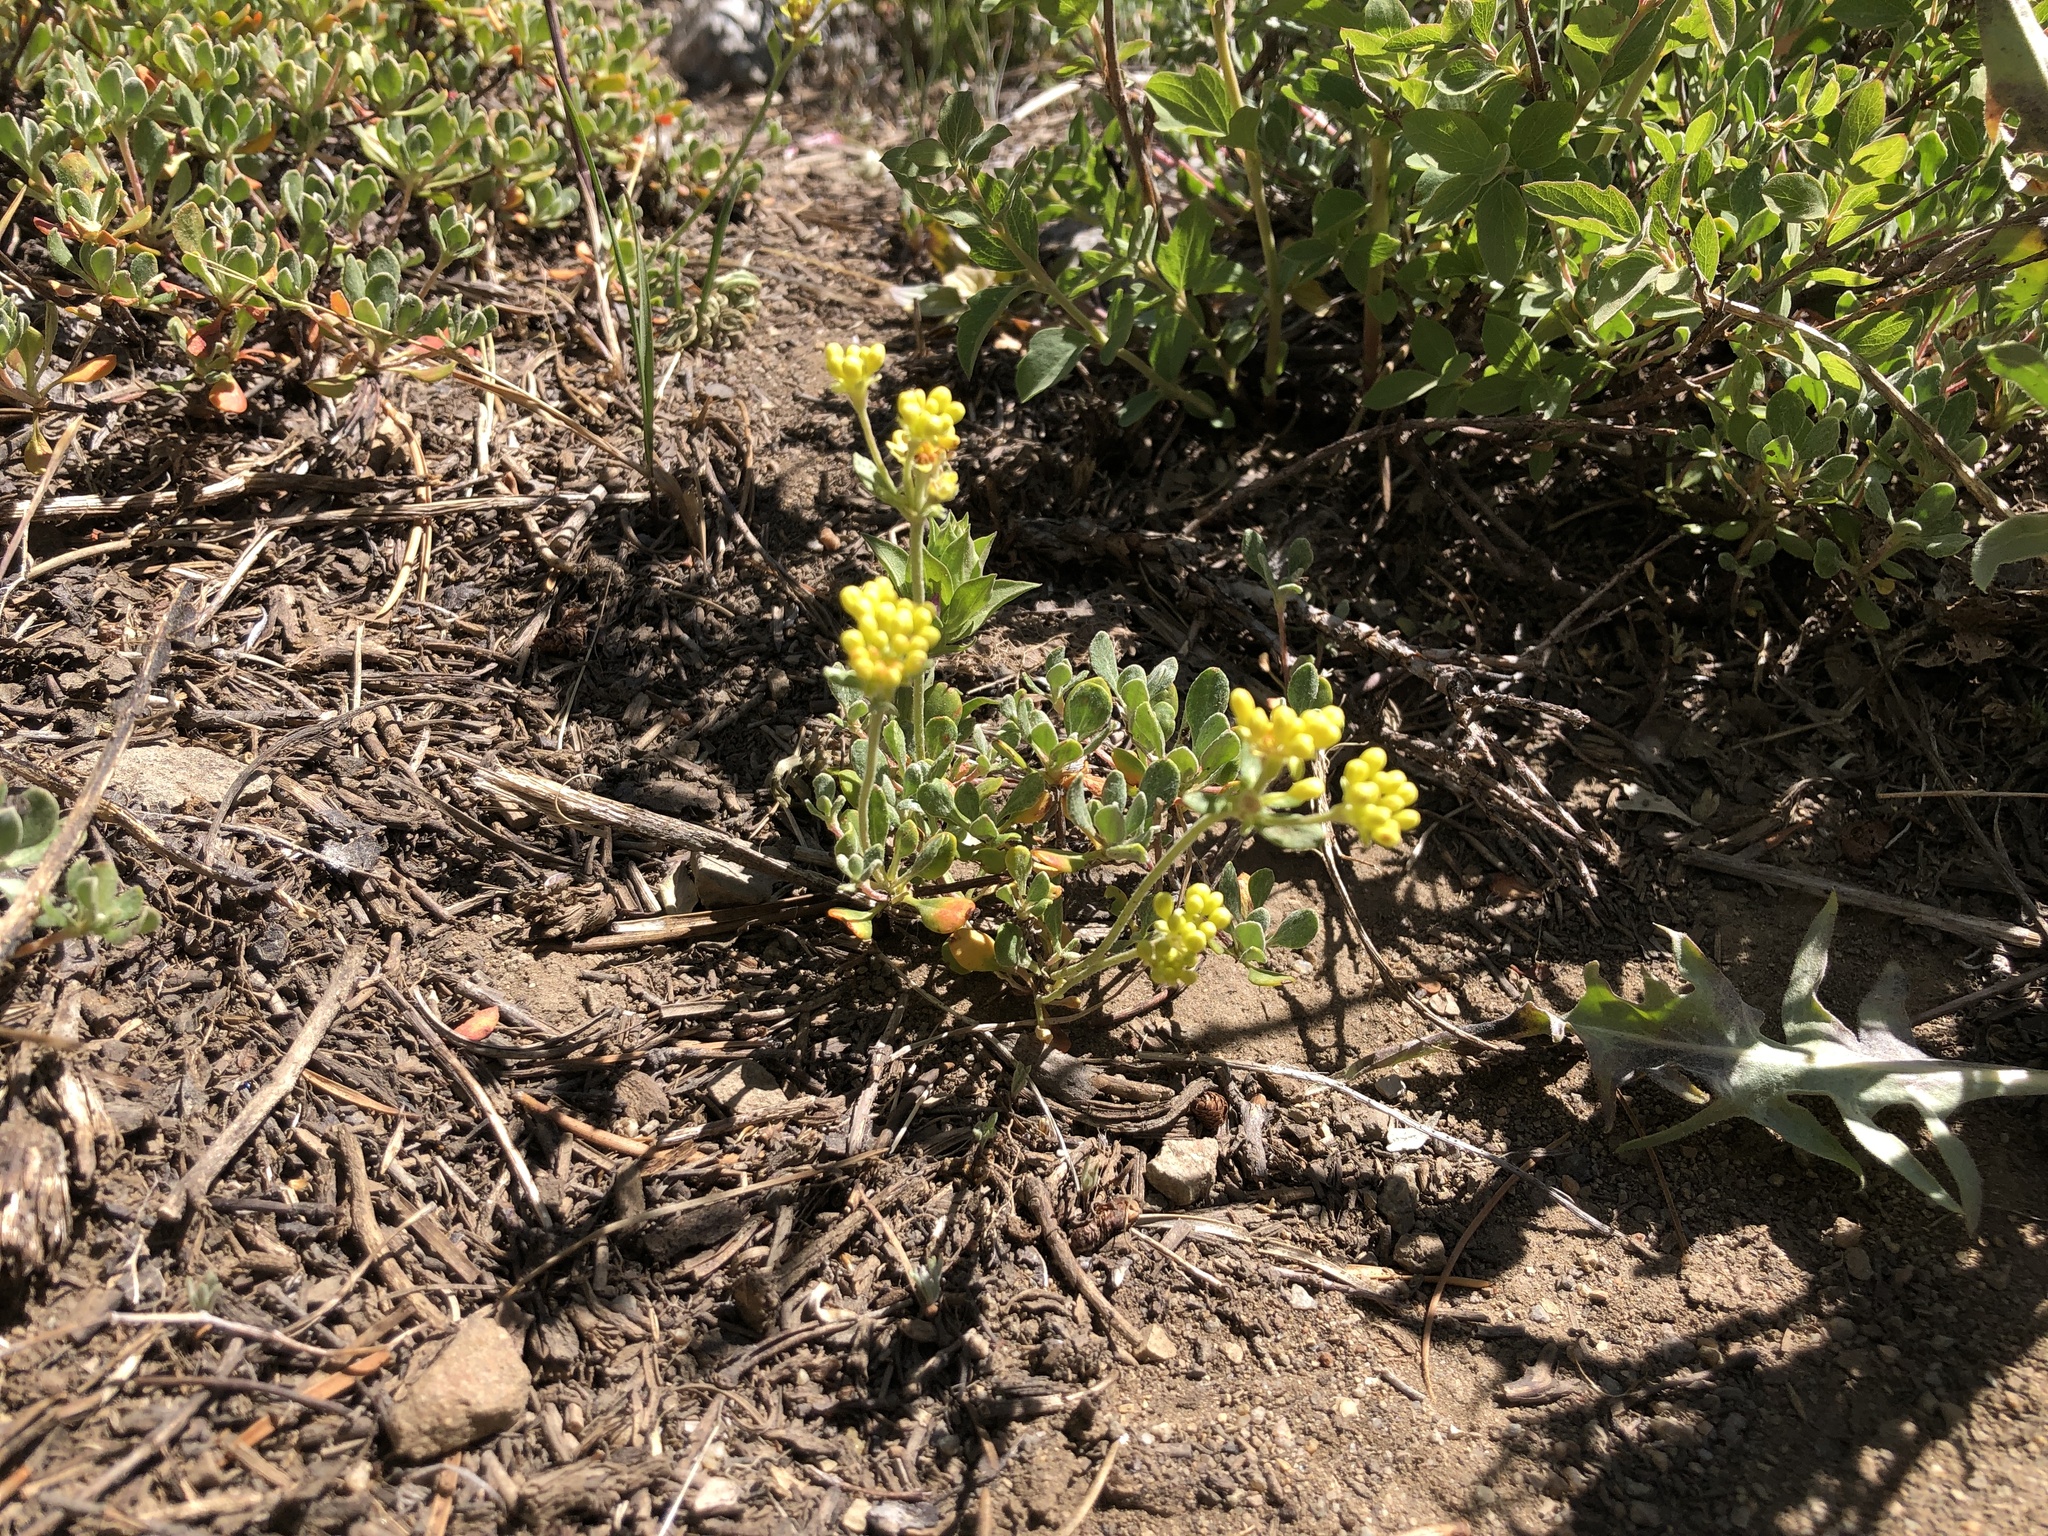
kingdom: Plantae
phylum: Tracheophyta
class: Magnoliopsida
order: Caryophyllales
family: Polygonaceae
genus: Eriogonum
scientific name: Eriogonum umbellatum
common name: Sulfur-buckwheat
